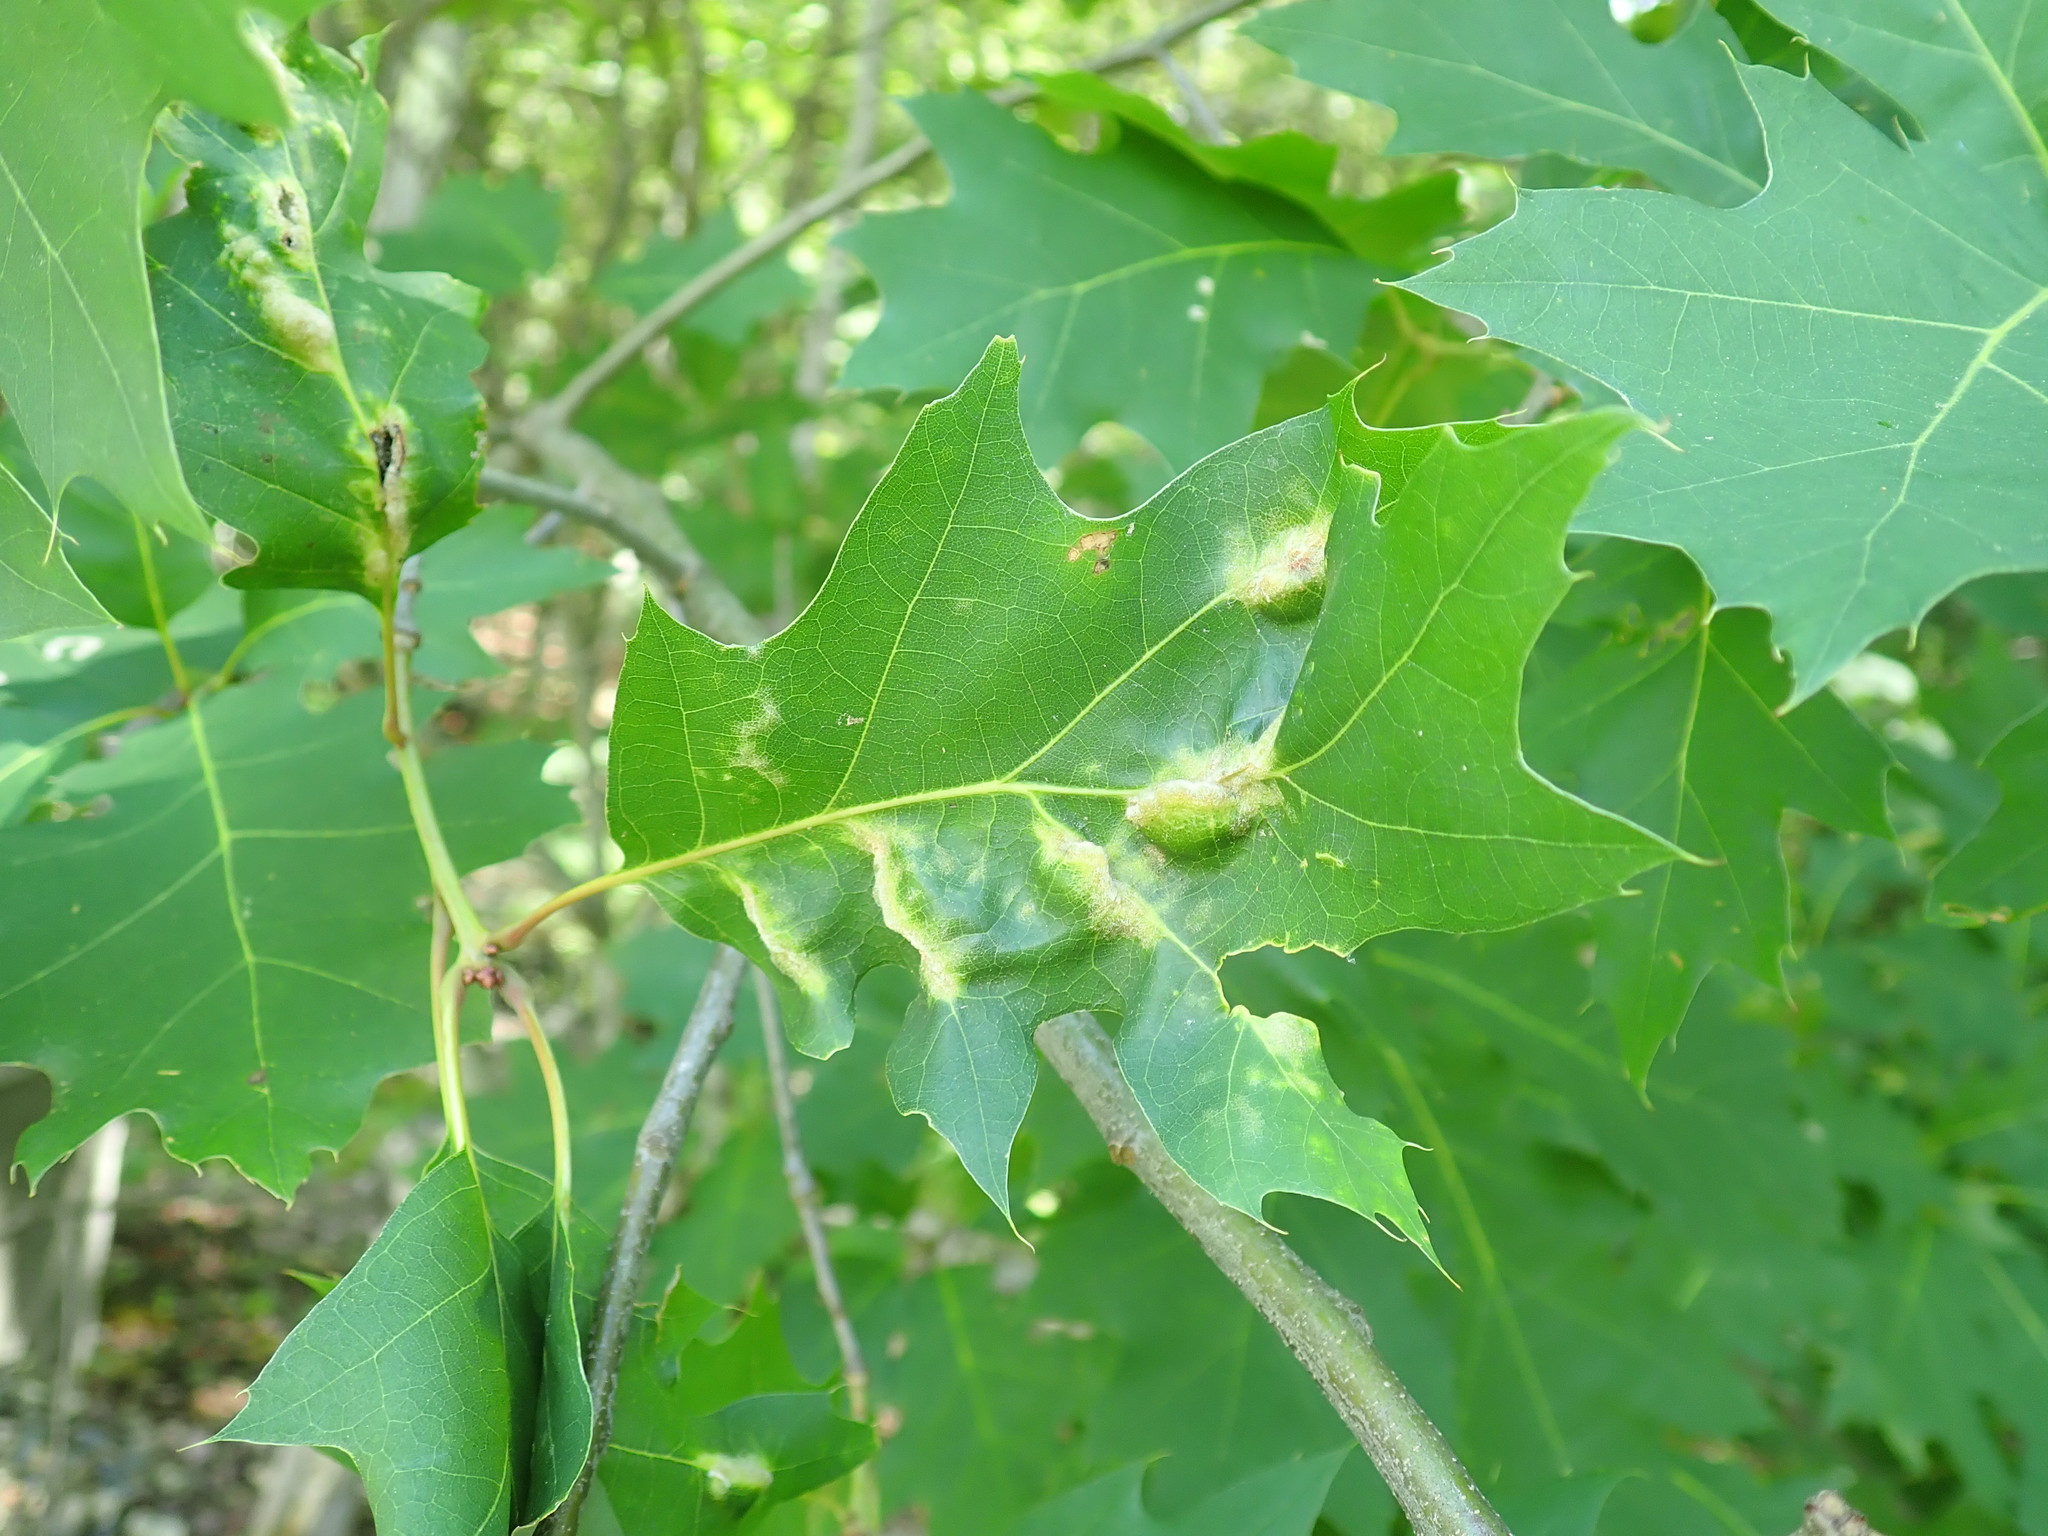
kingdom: Animalia
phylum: Arthropoda
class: Insecta
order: Diptera
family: Cecidomyiidae
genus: Macrodiplosis
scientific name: Macrodiplosis niveipila
